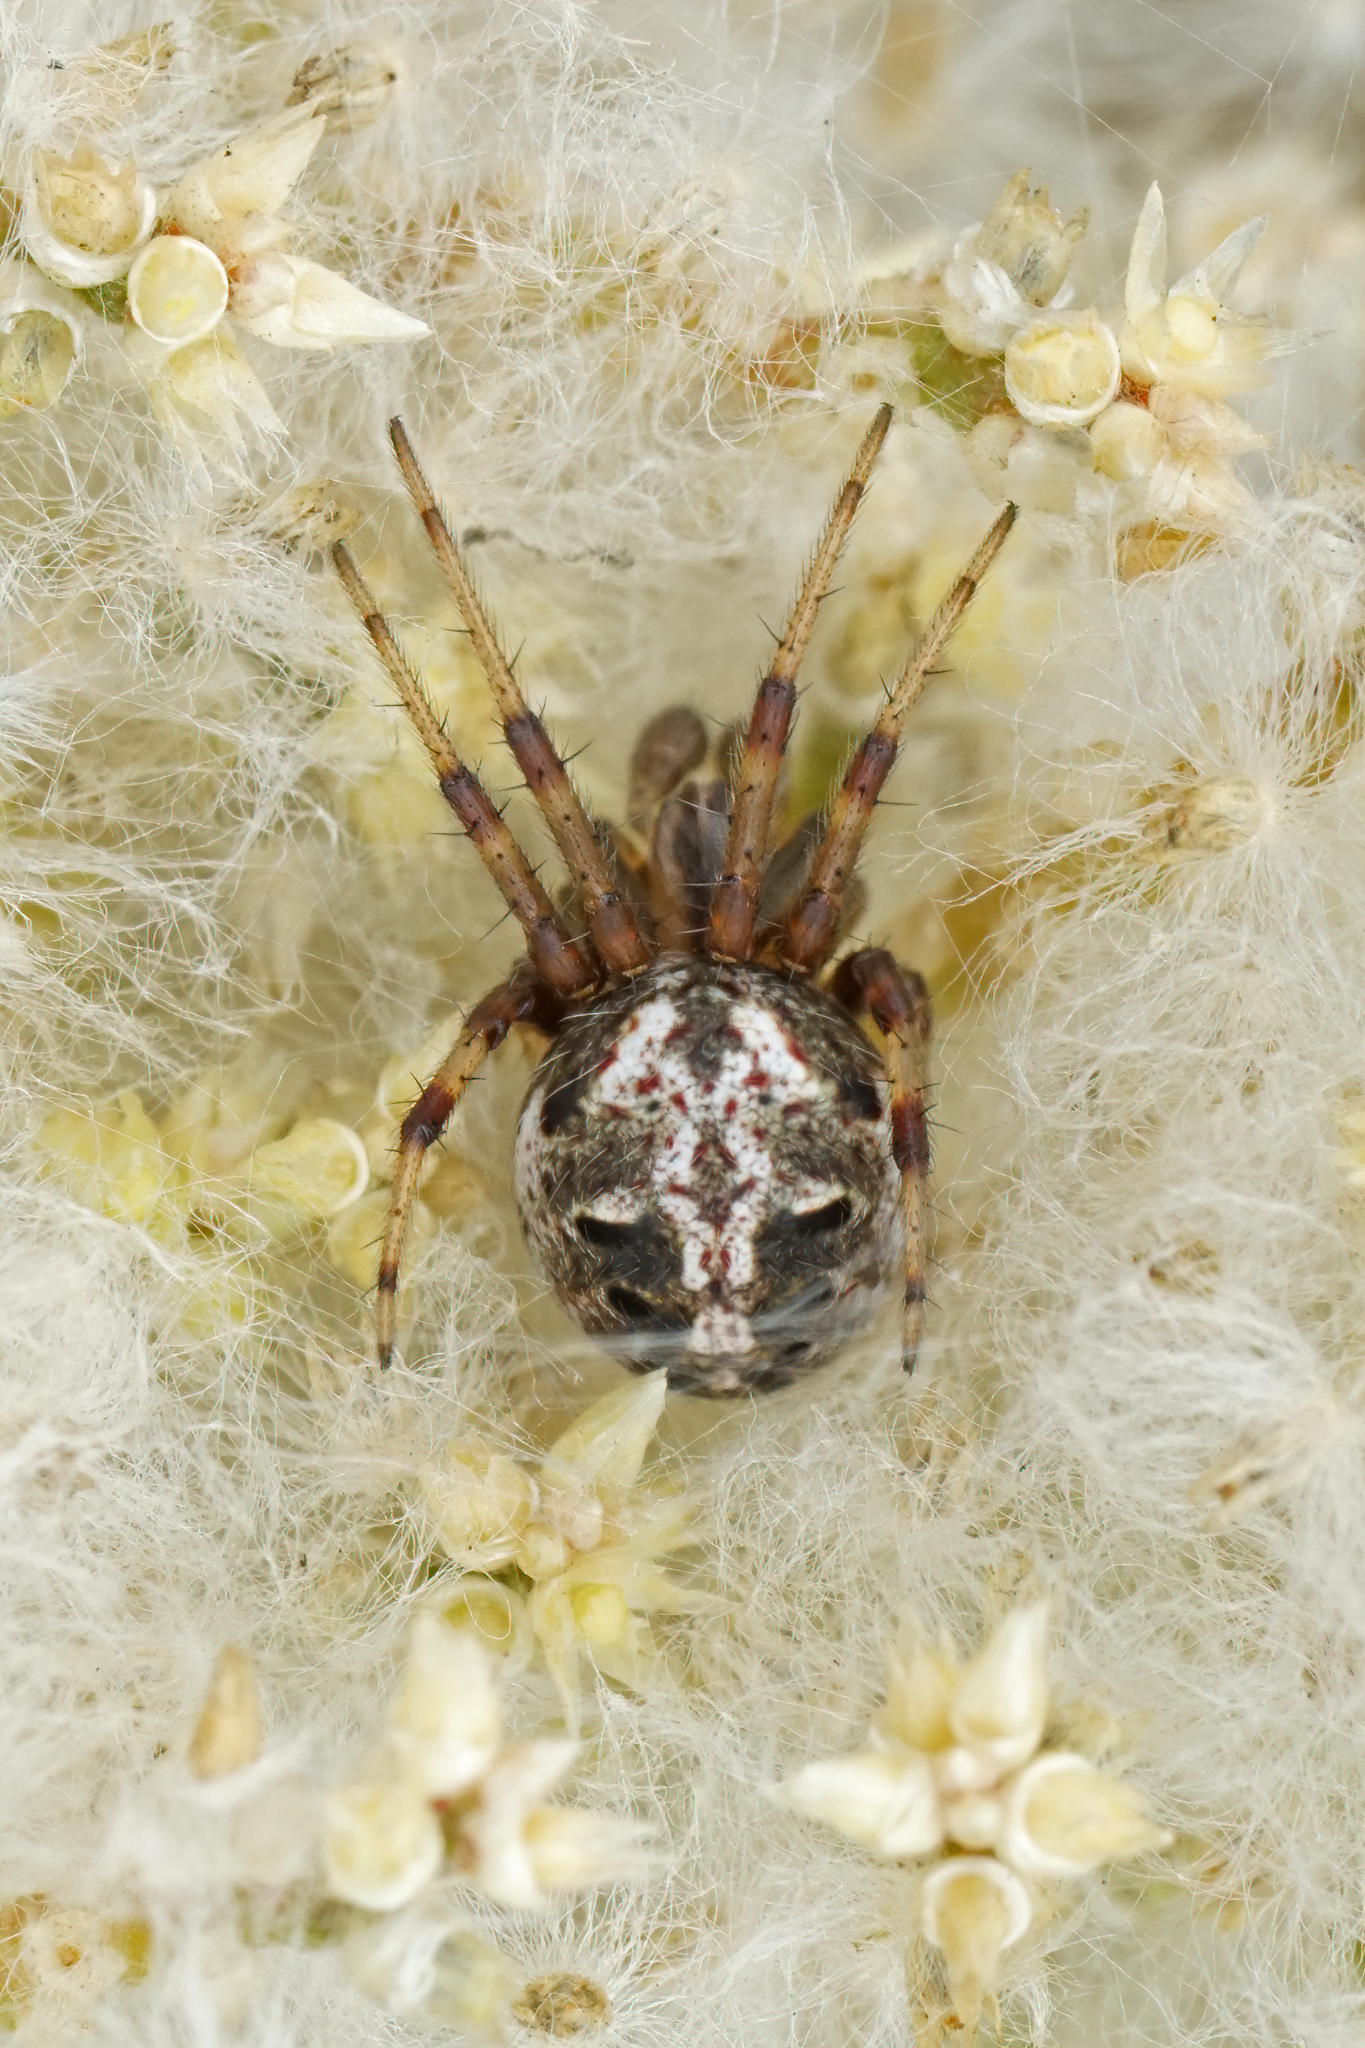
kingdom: Animalia
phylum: Arthropoda
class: Arachnida
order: Araneae
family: Araneidae
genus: Neoscona
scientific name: Neoscona arabesca
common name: Orb weavers
